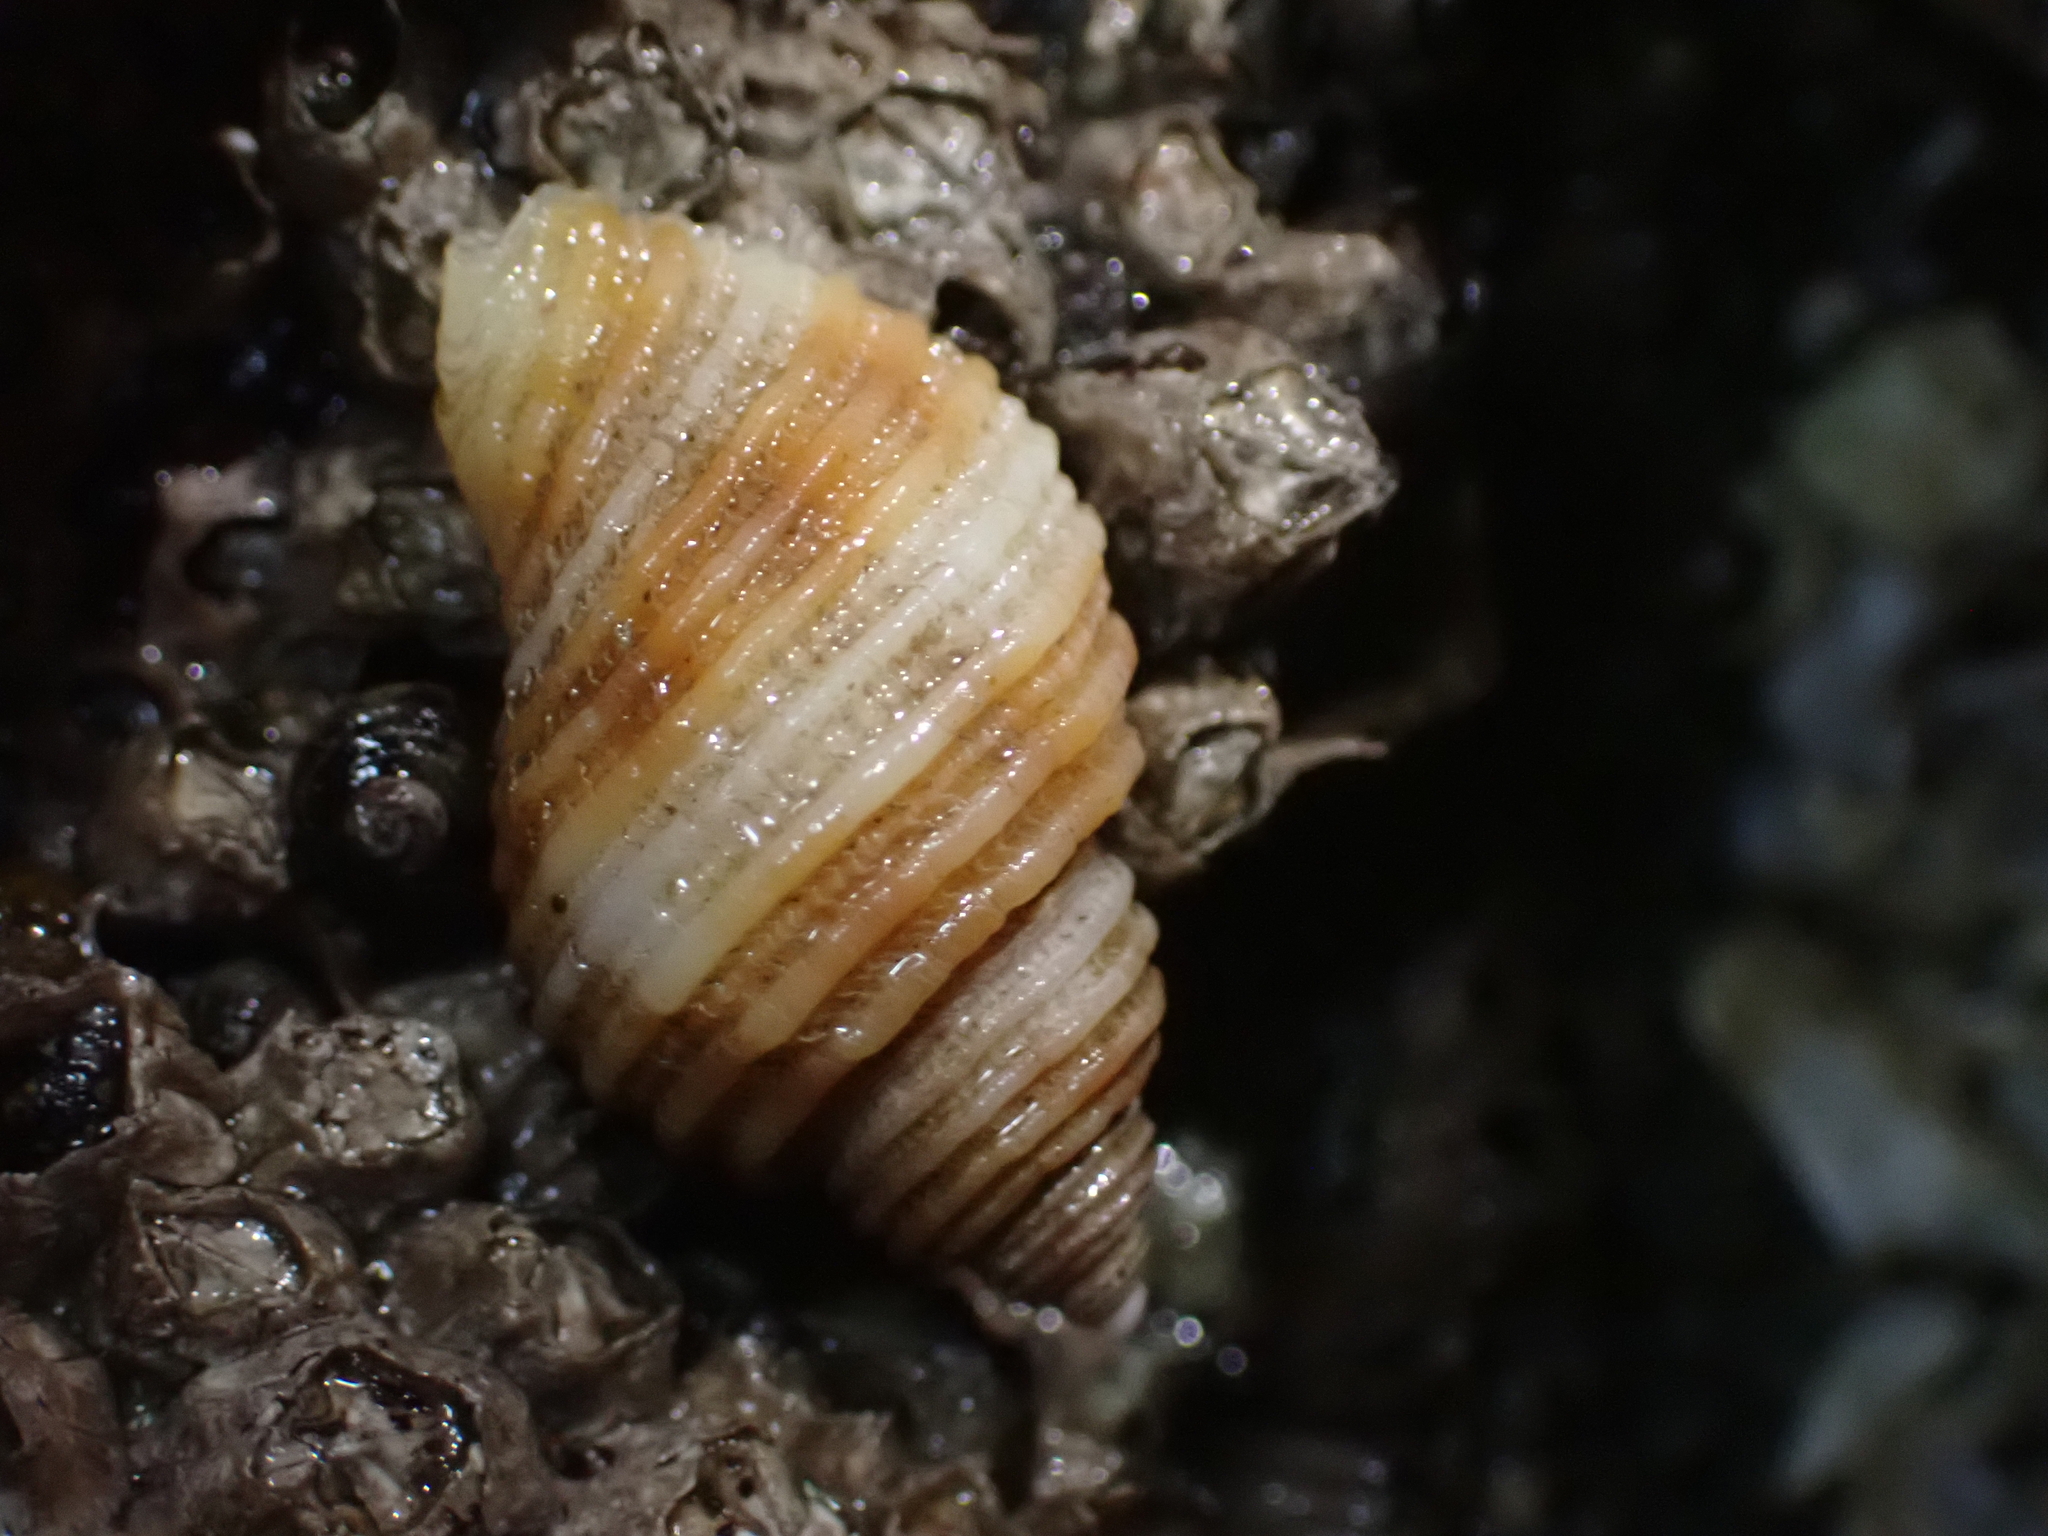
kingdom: Animalia
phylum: Mollusca
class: Gastropoda
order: Neogastropoda
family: Muricidae
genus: Nucella
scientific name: Nucella canaliculata
